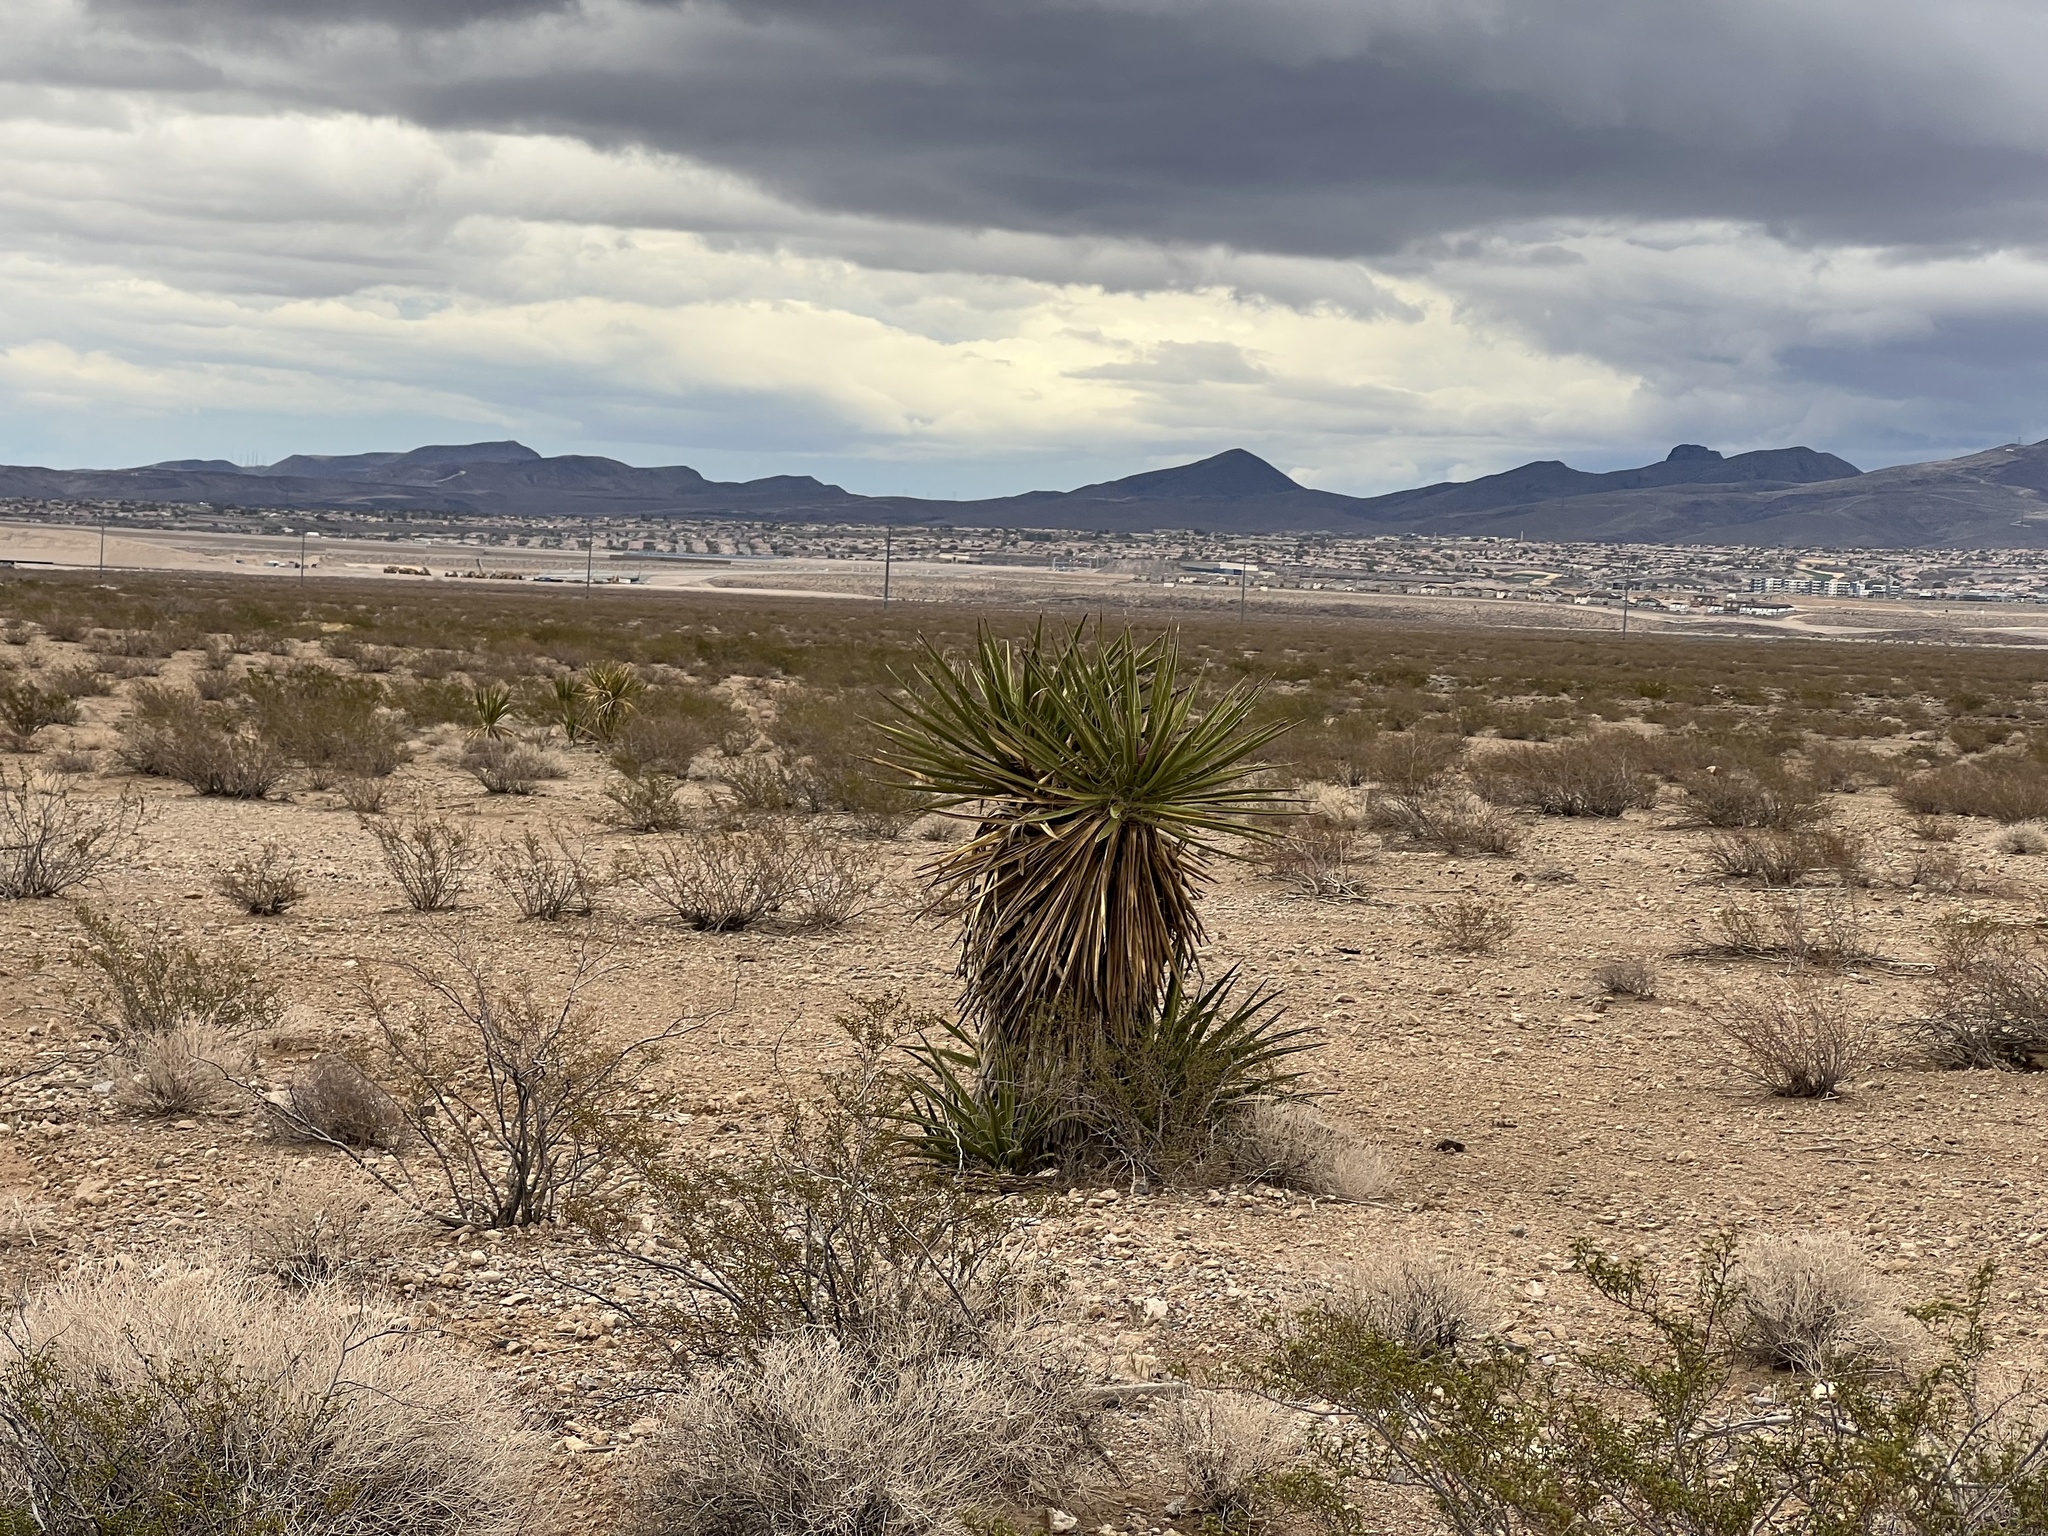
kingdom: Plantae
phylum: Tracheophyta
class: Liliopsida
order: Asparagales
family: Asparagaceae
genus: Yucca
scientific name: Yucca schidigera
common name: Mojave yucca
